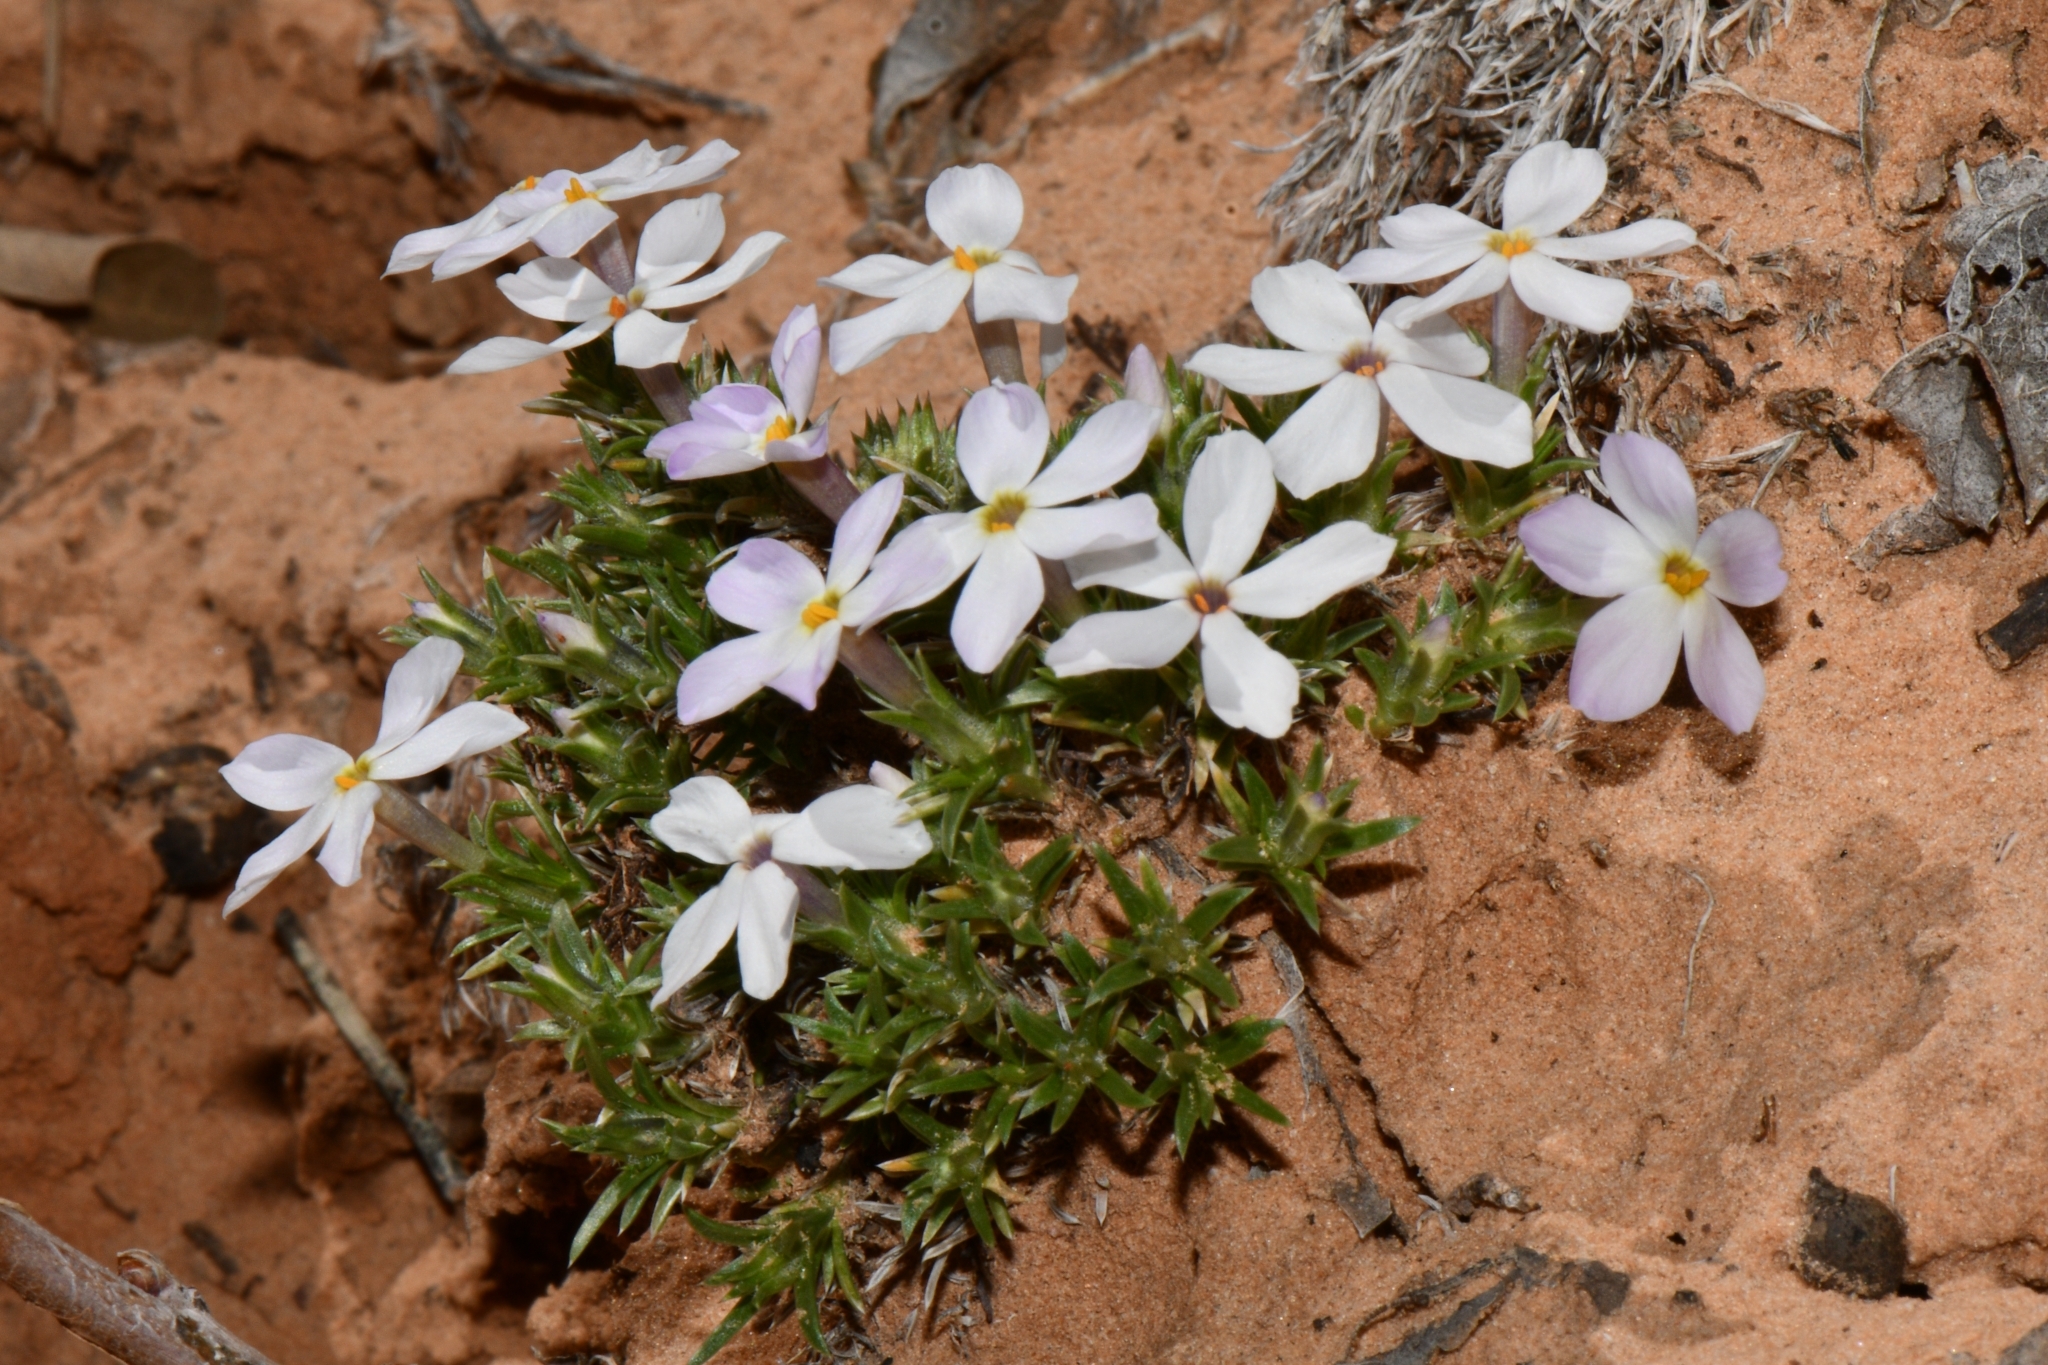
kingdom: Plantae
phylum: Tracheophyta
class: Magnoliopsida
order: Ericales
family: Polemoniaceae
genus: Phlox
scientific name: Phlox hoodii
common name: Moss phlox
